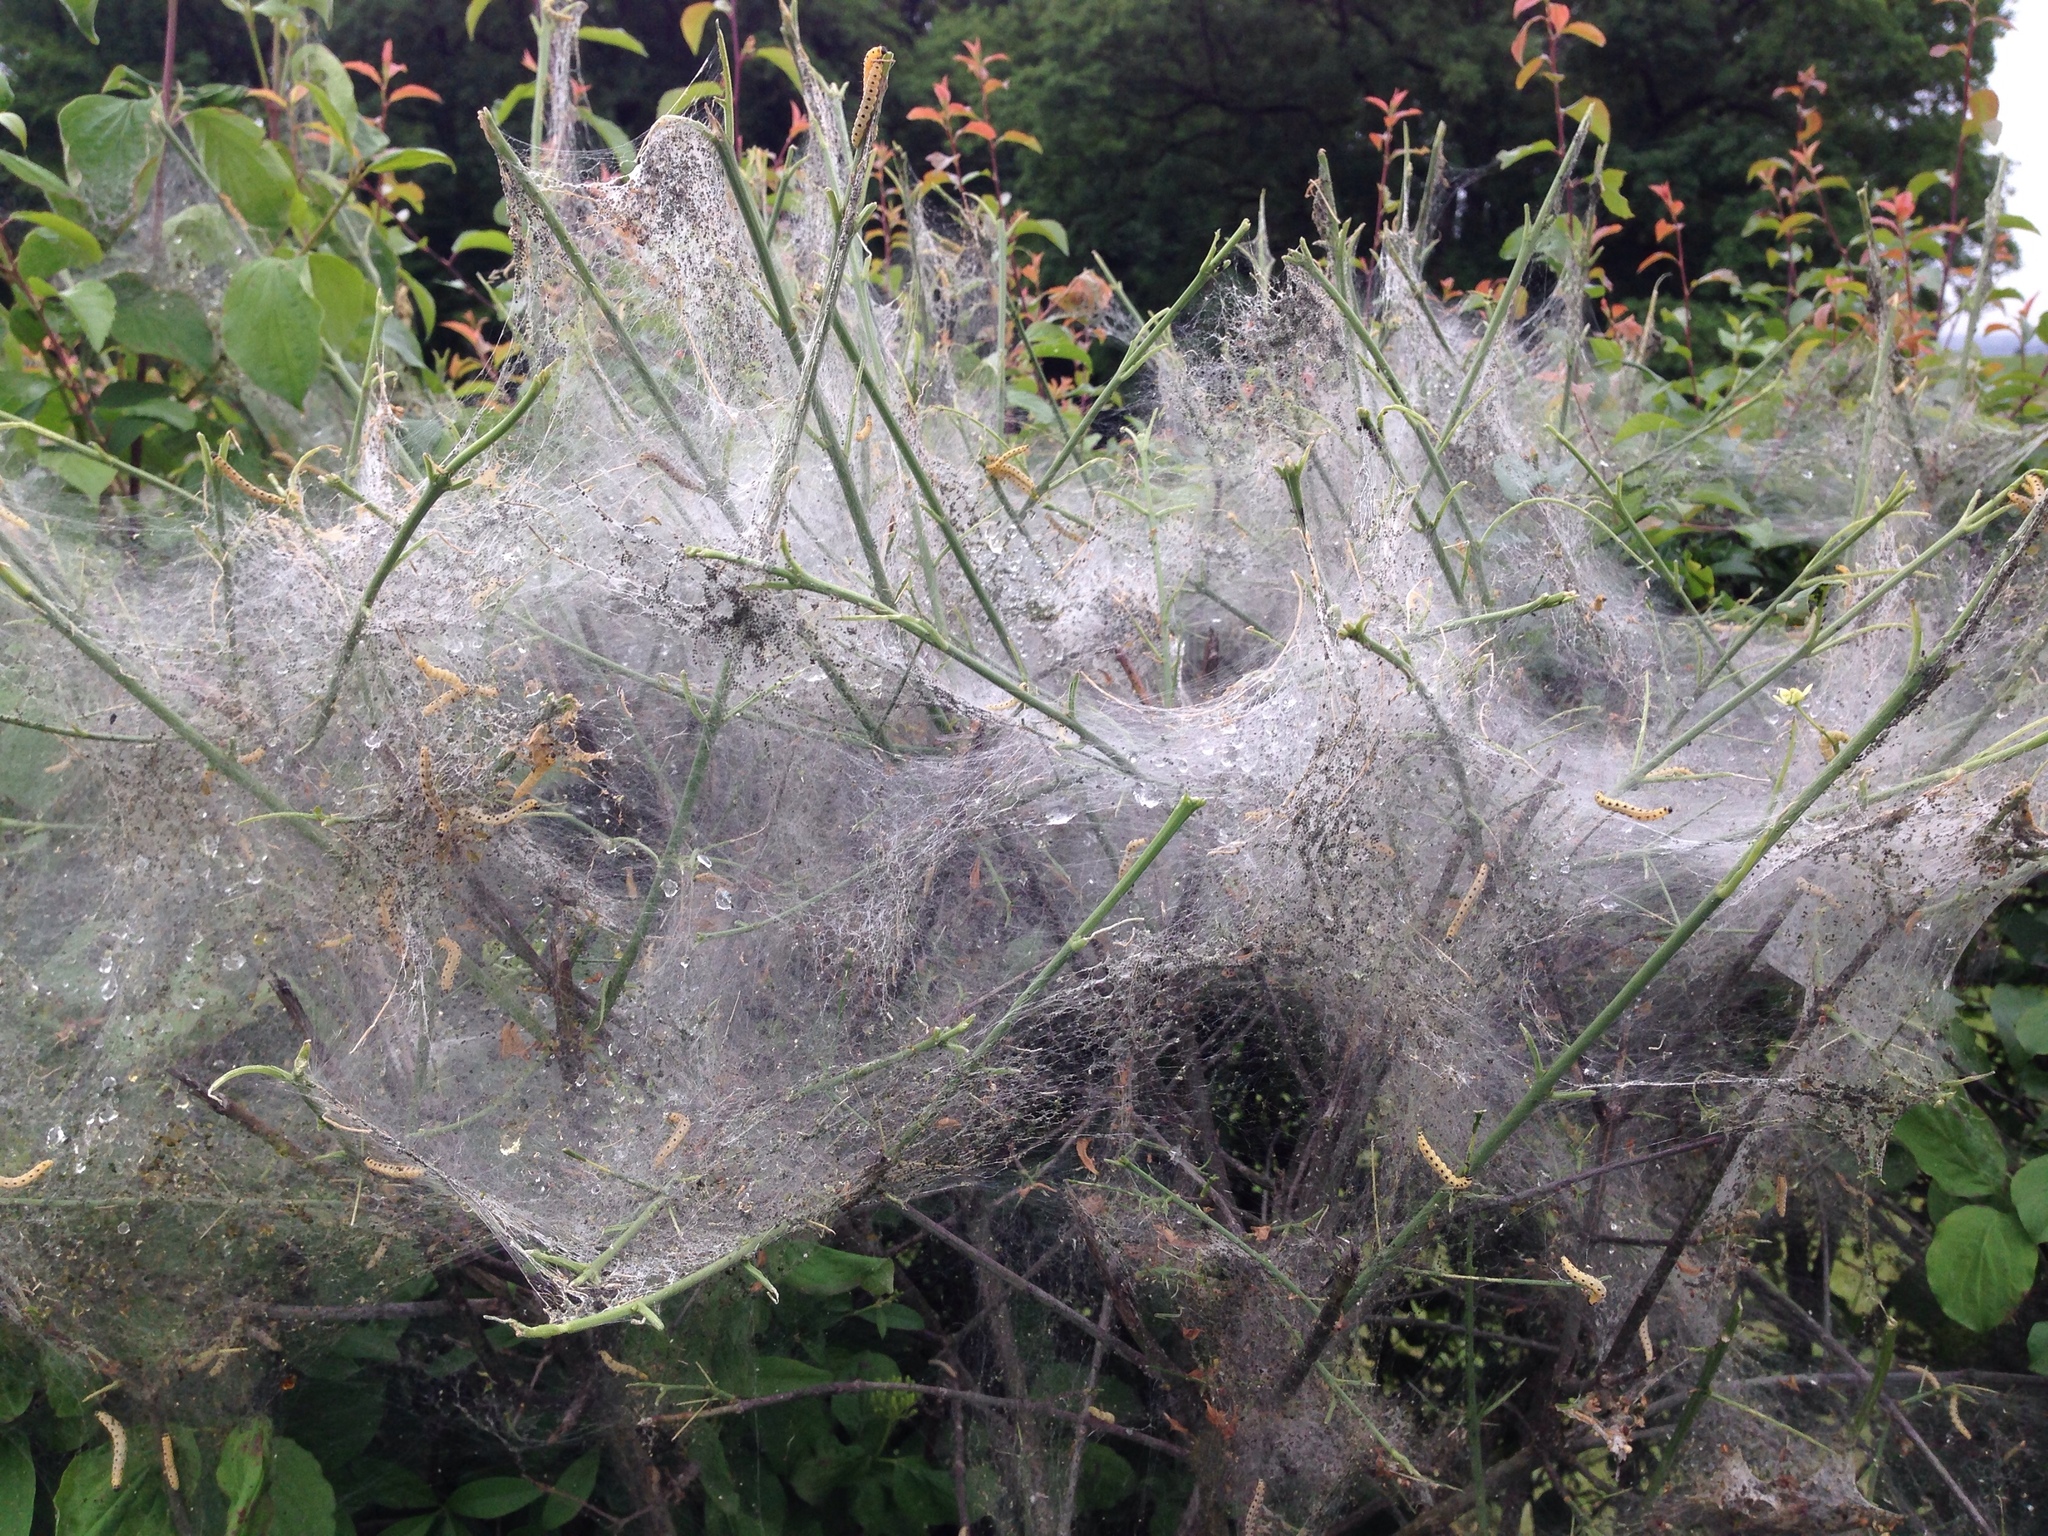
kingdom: Animalia
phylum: Arthropoda
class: Insecta
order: Lepidoptera
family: Yponomeutidae
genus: Yponomeuta
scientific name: Yponomeuta cagnagellus
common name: Spindle ermine
